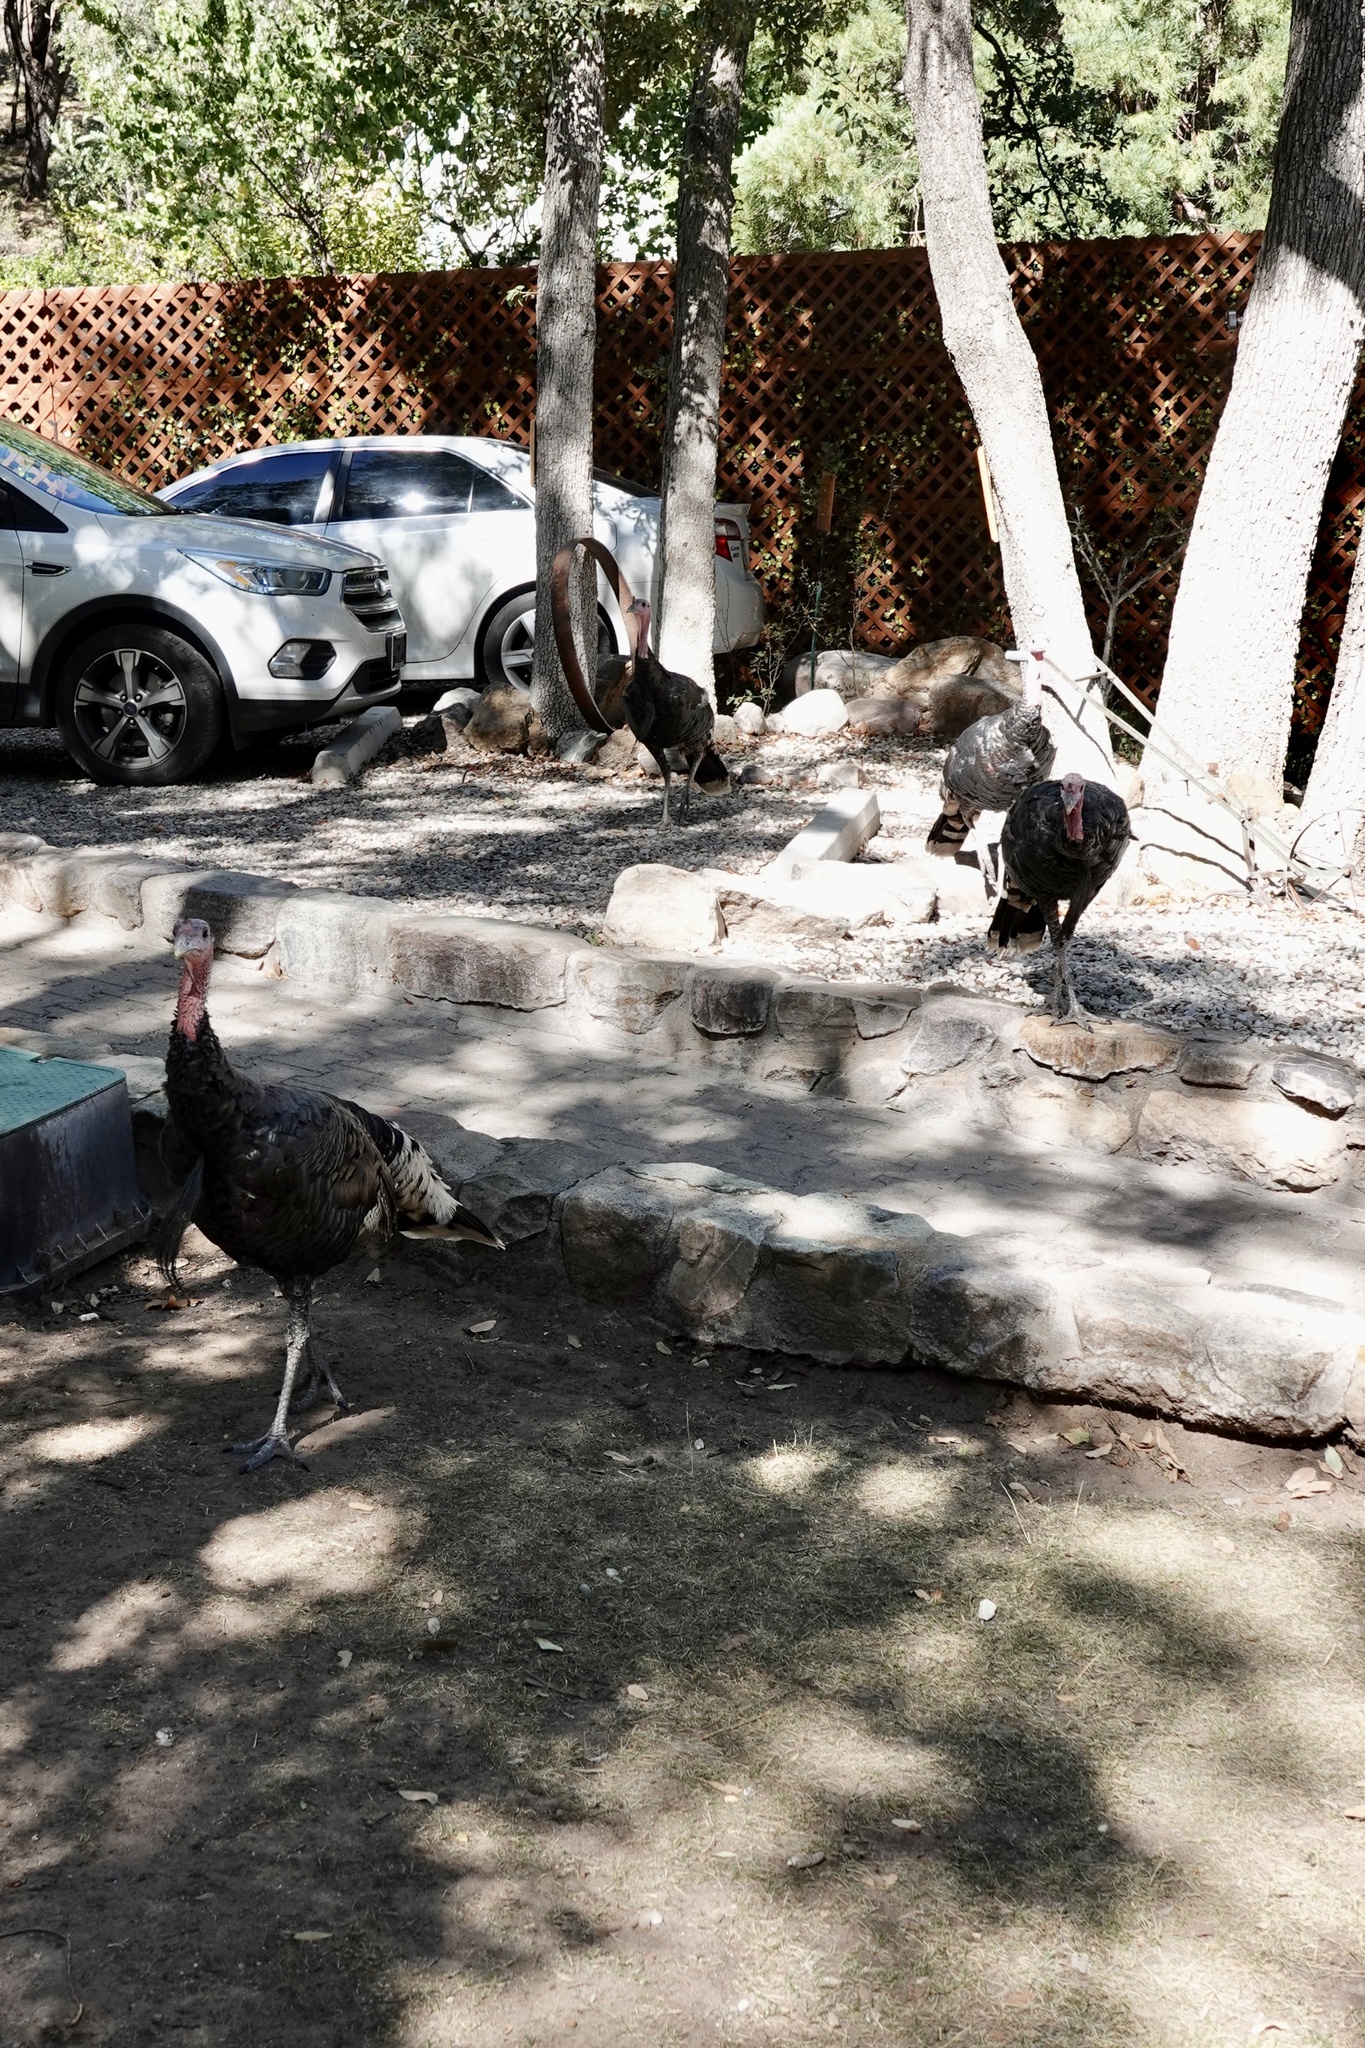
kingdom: Animalia
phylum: Chordata
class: Aves
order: Galliformes
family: Phasianidae
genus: Meleagris
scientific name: Meleagris gallopavo
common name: Wild turkey
